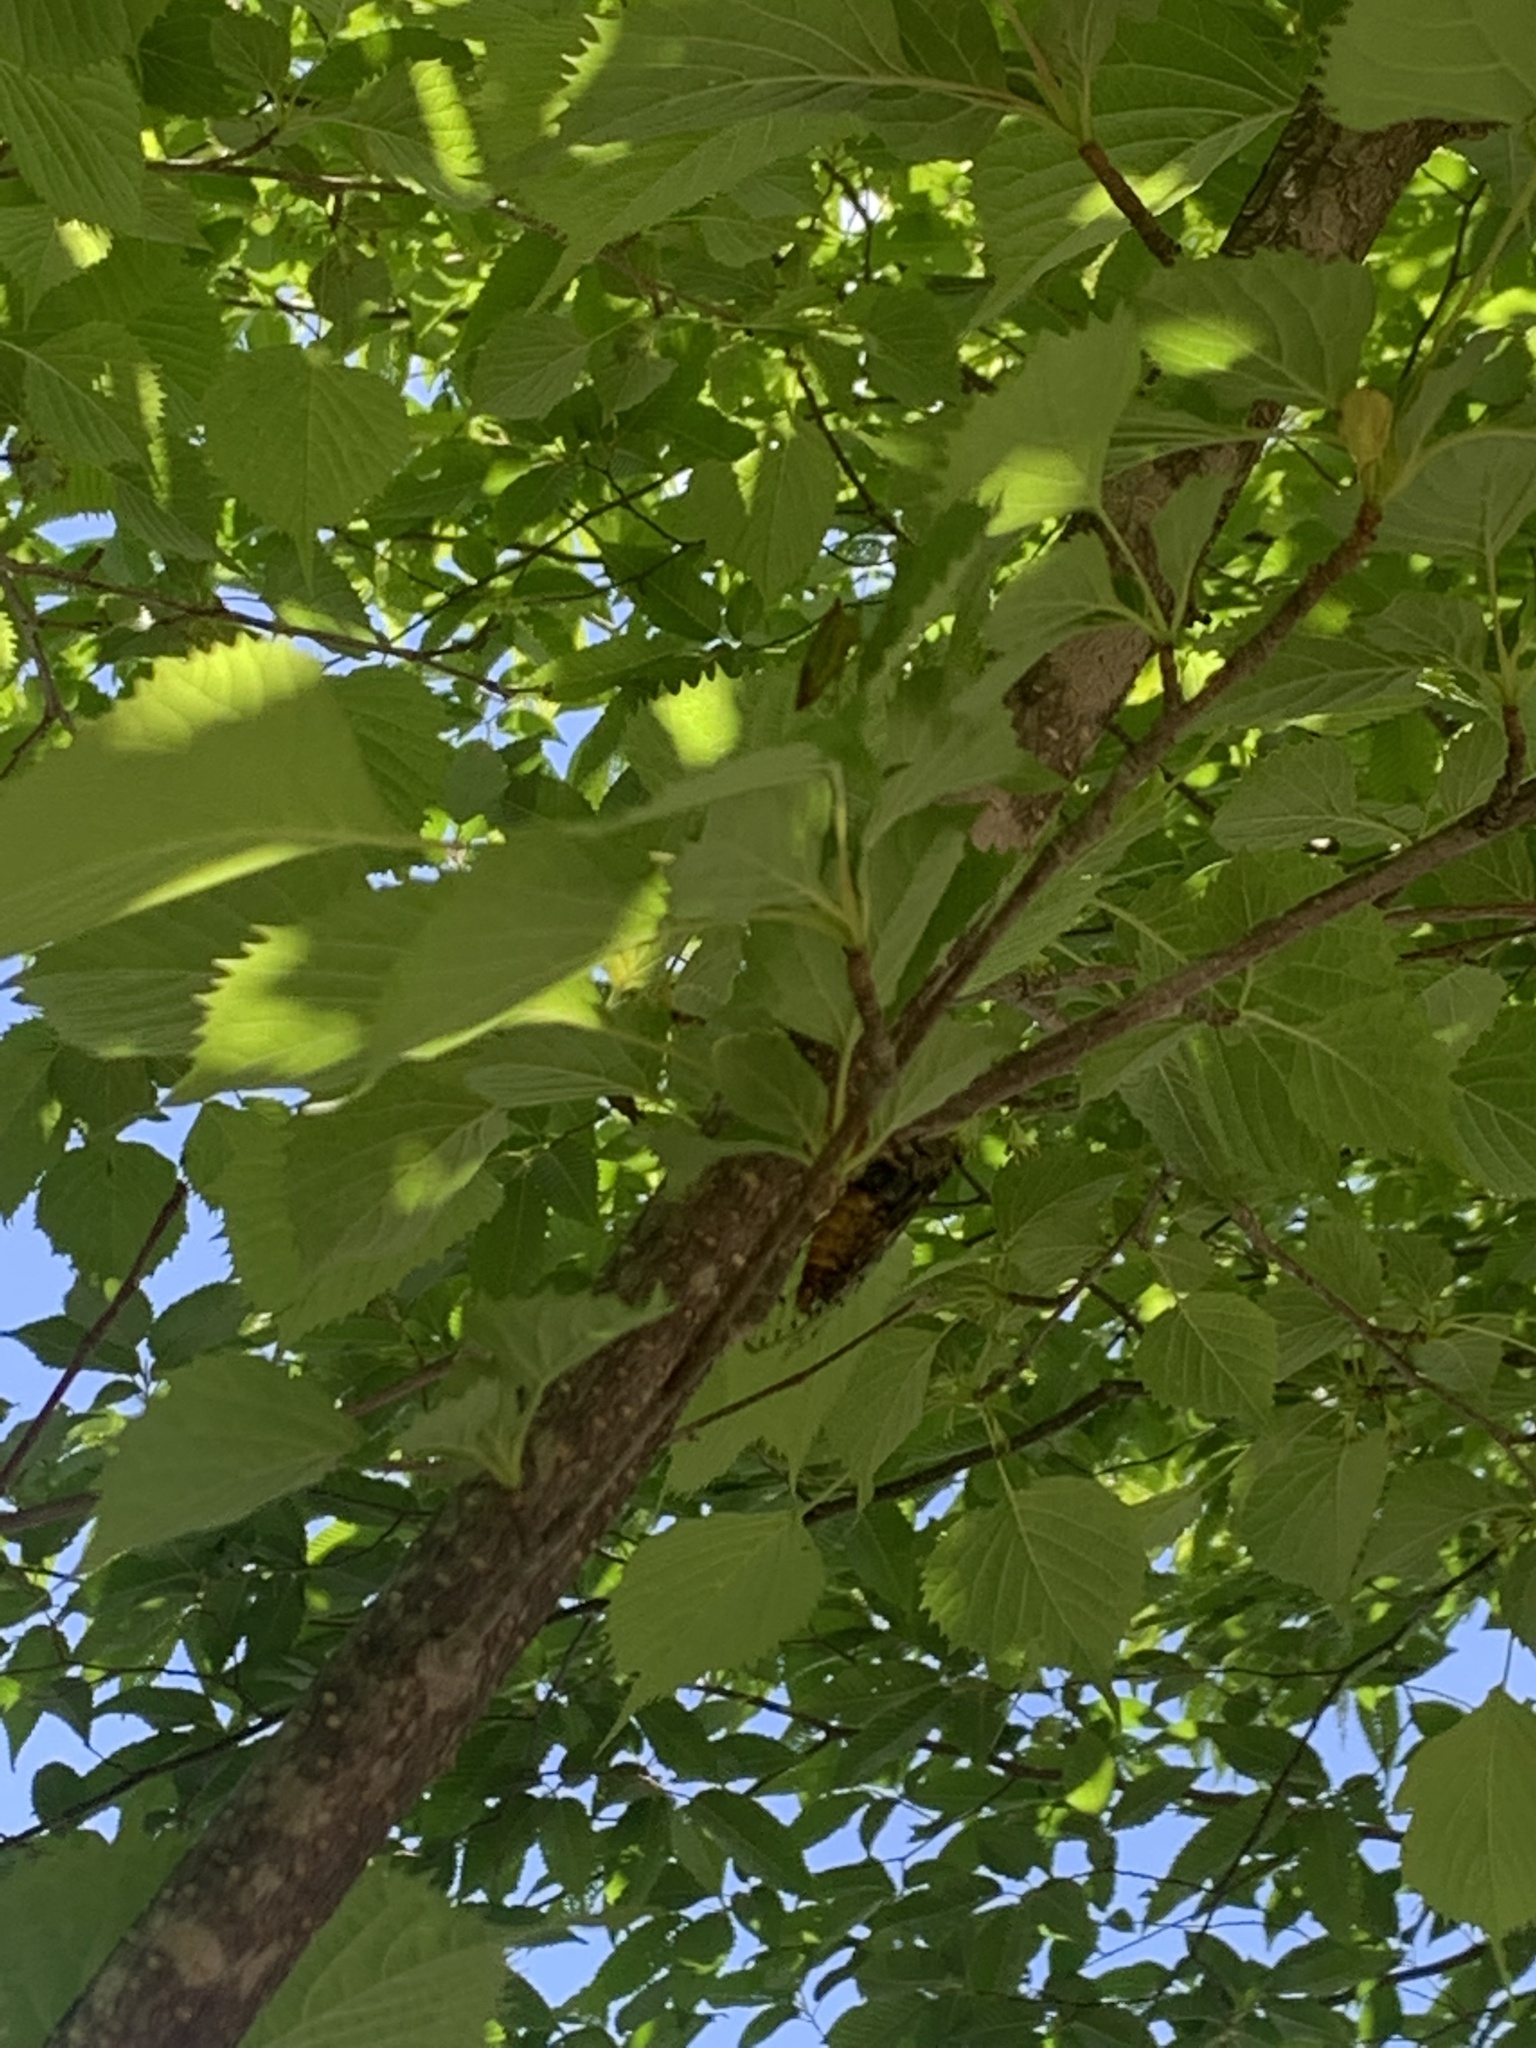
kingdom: Animalia
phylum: Arthropoda
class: Insecta
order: Hemiptera
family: Cicadidae
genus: Yezoterpnosia
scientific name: Yezoterpnosia nigricosta
